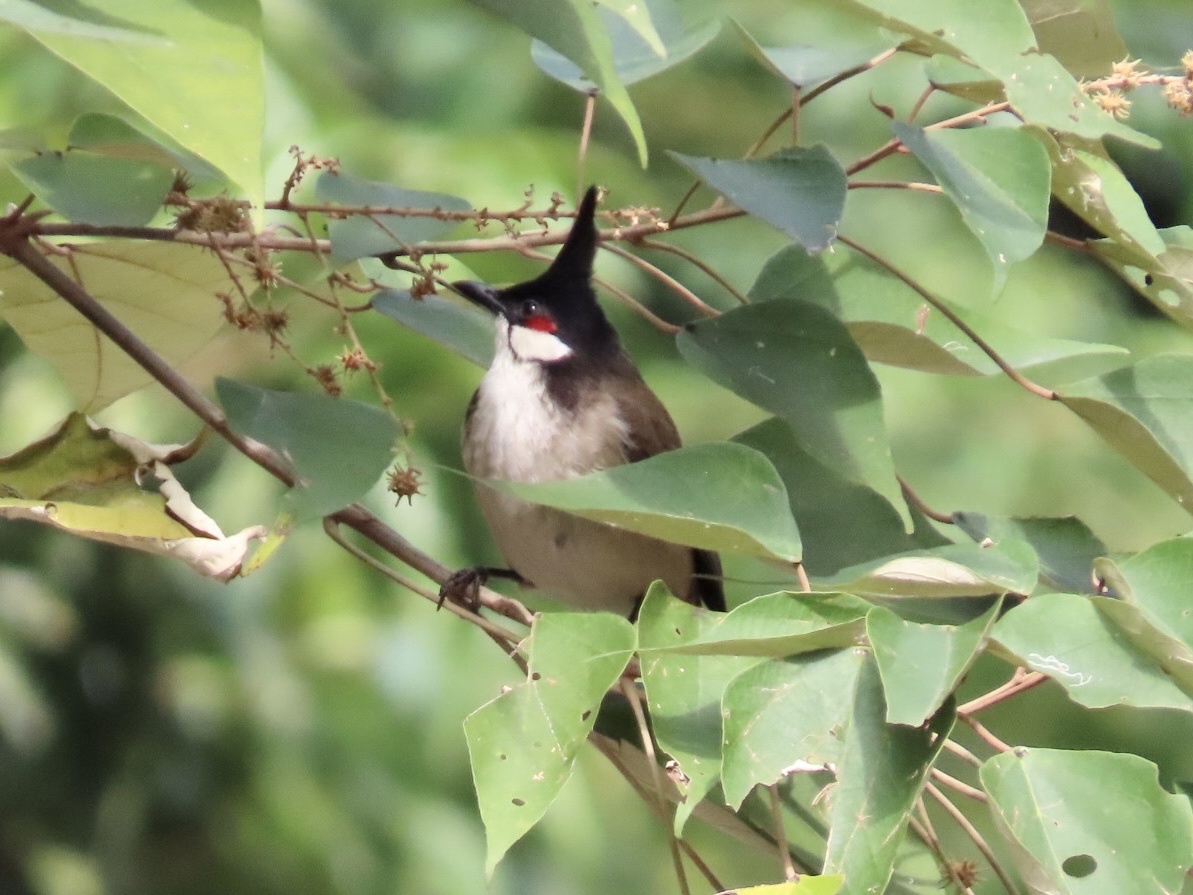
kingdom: Animalia
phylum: Chordata
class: Aves
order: Passeriformes
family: Pycnonotidae
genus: Pycnonotus
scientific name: Pycnonotus jocosus
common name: Red-whiskered bulbul
